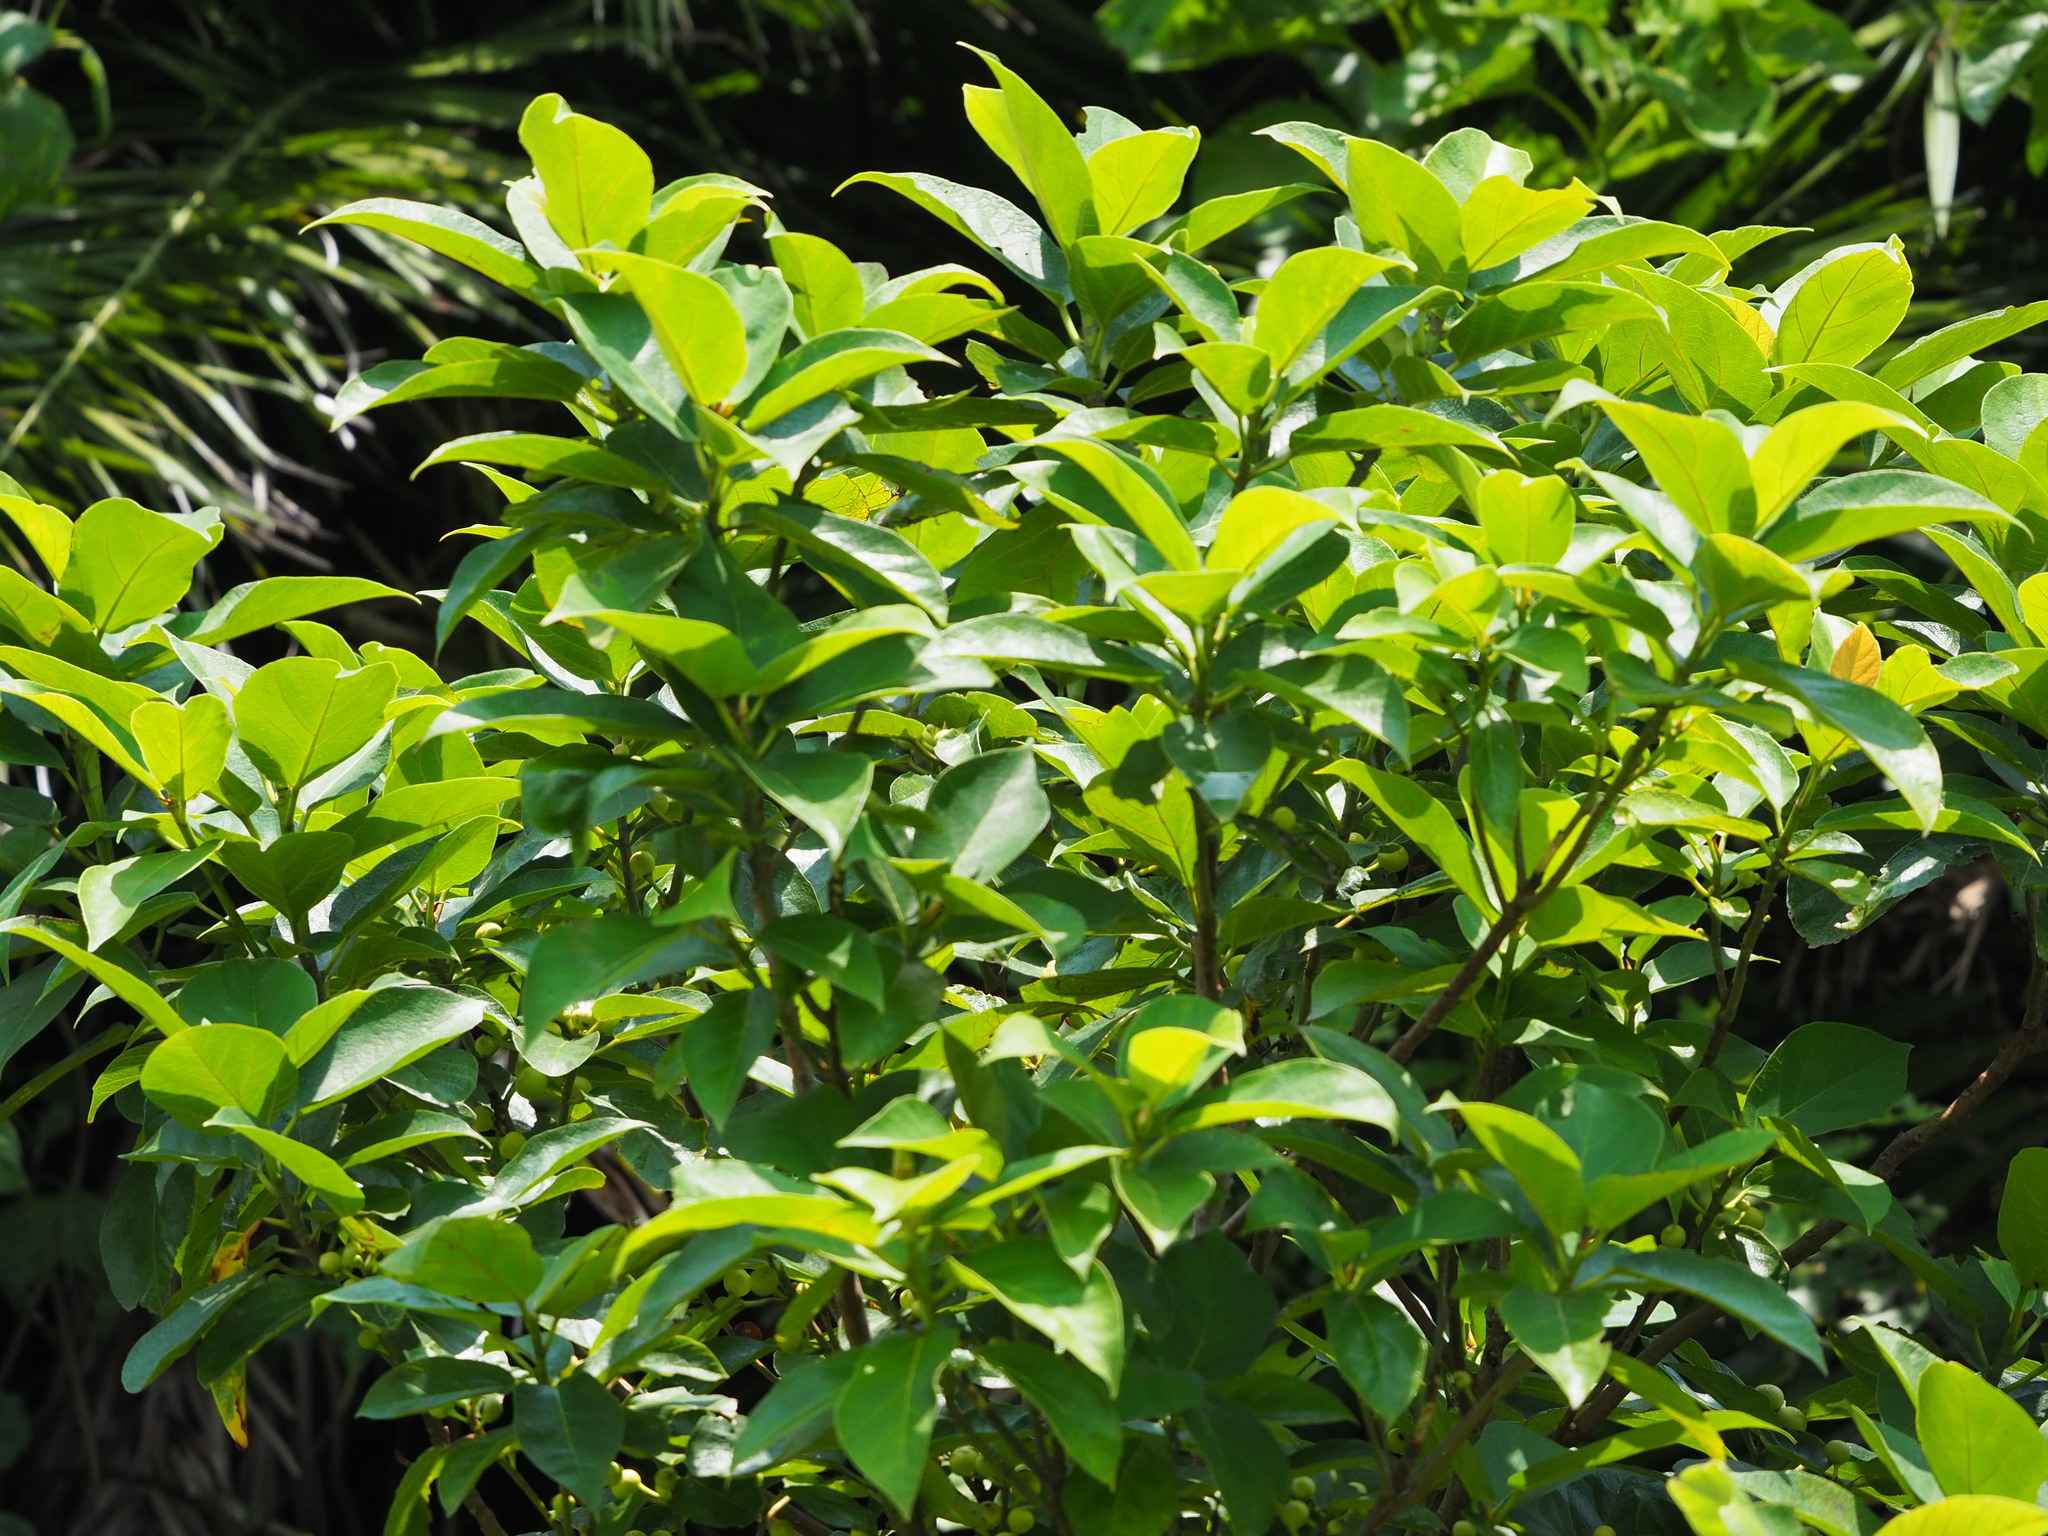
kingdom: Plantae
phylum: Tracheophyta
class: Magnoliopsida
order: Rosales
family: Moraceae
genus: Ficus
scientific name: Ficus erecta
